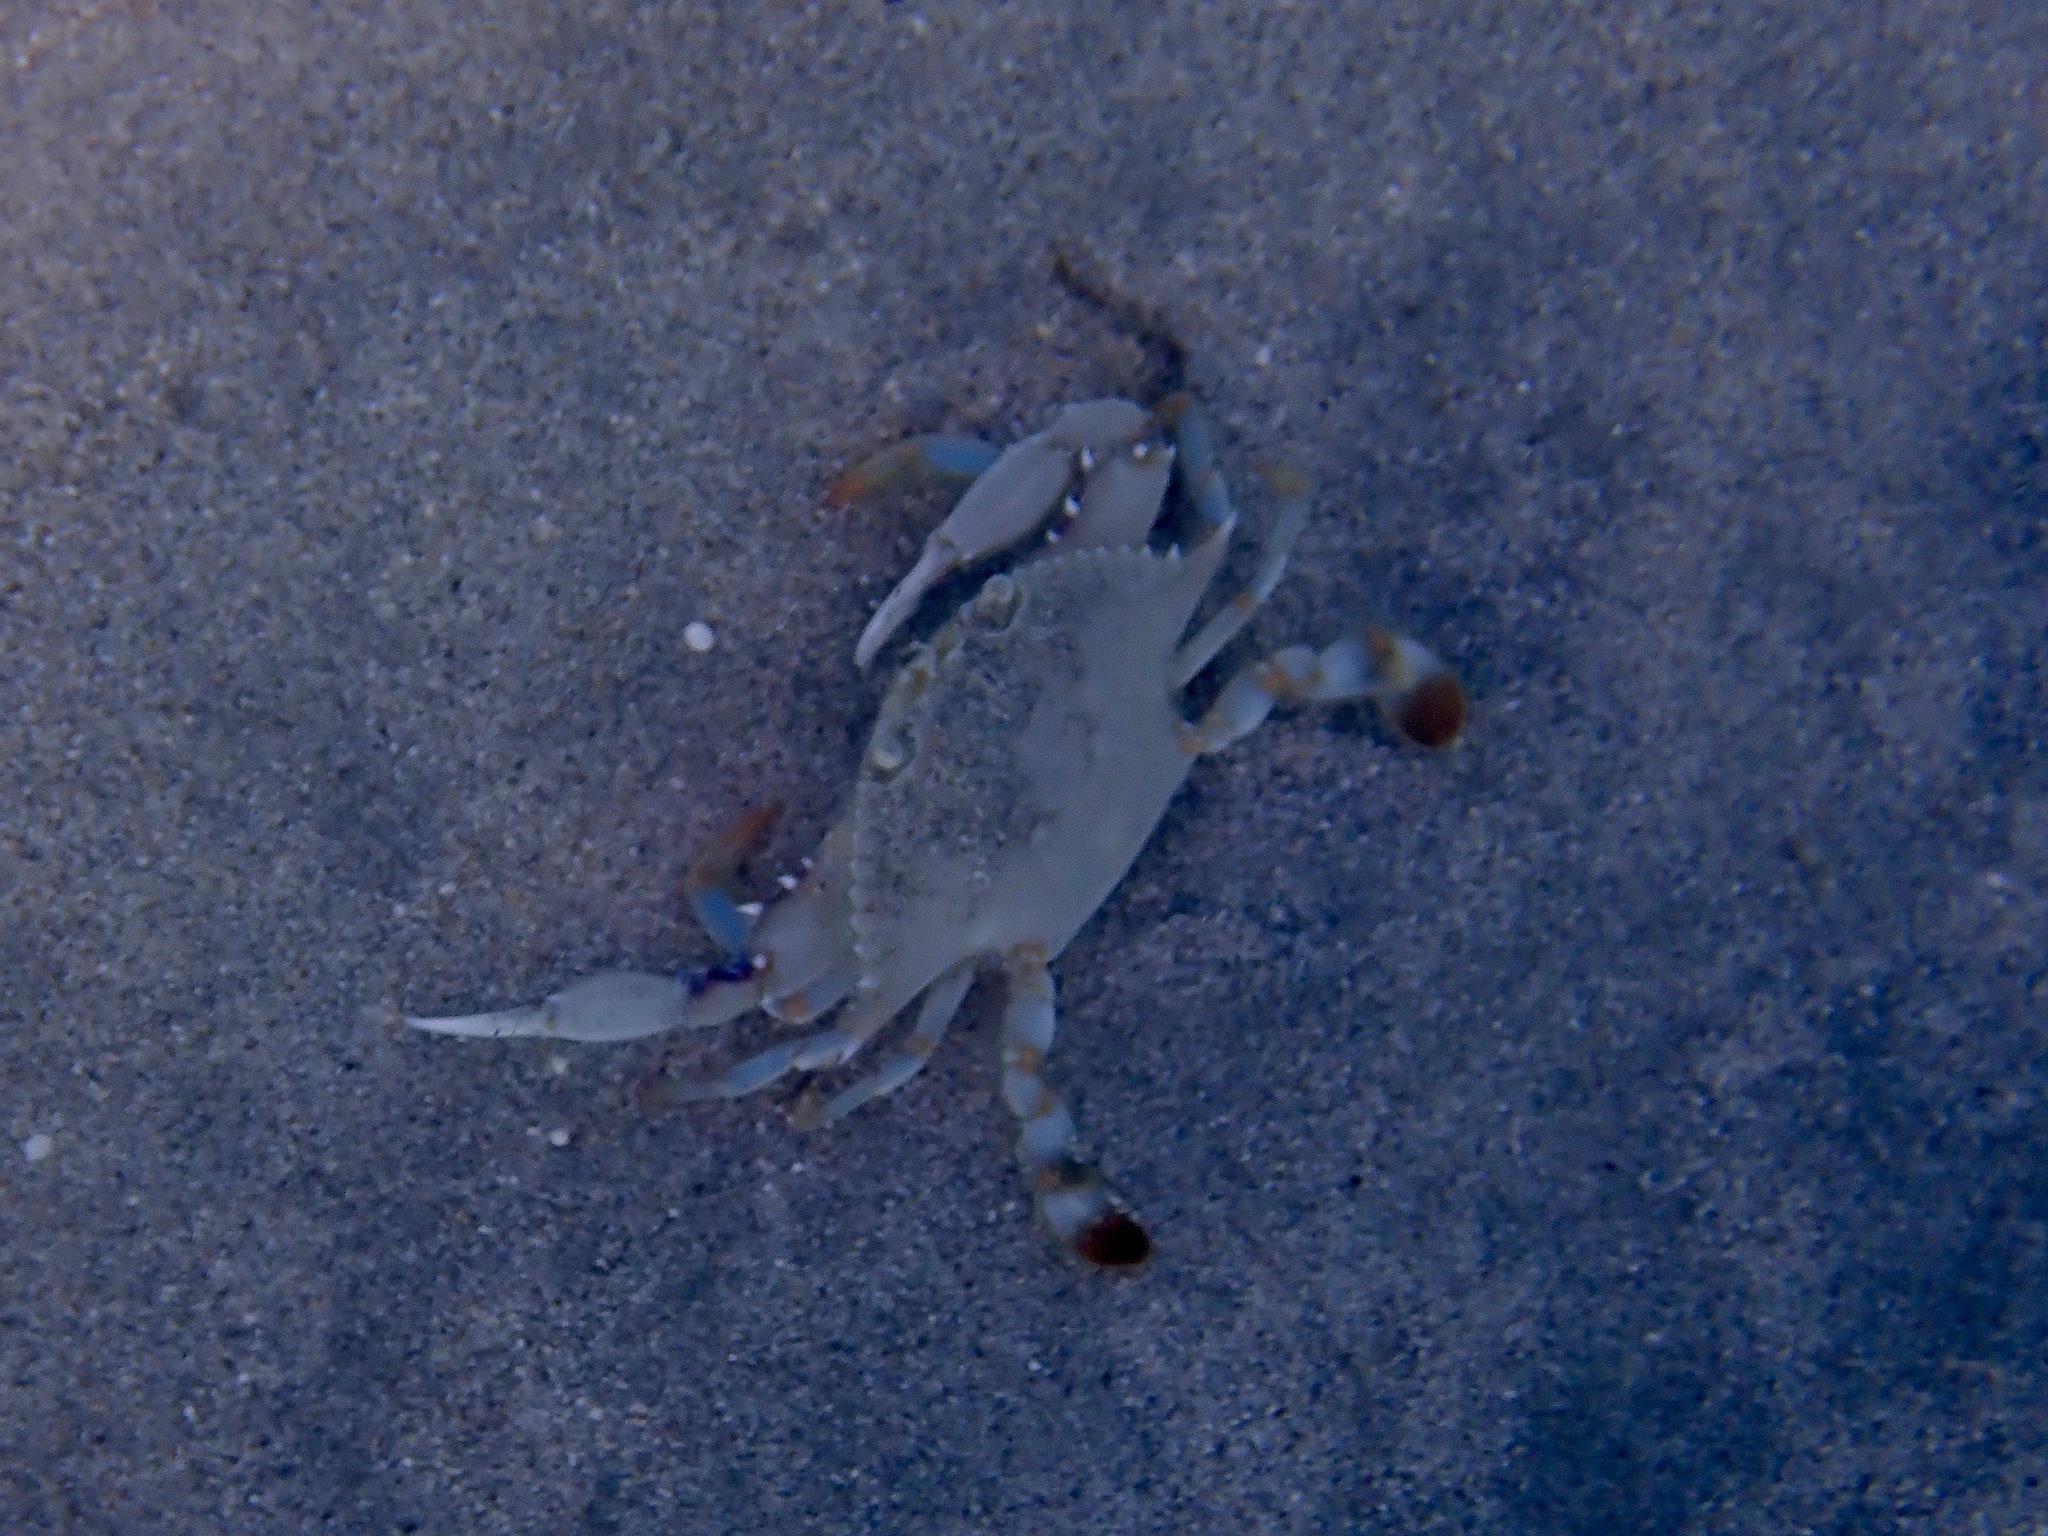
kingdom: Animalia
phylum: Arthropoda
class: Malacostraca
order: Decapoda
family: Portunidae
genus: Callinectes
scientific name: Callinectes ornatus
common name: Ornate crab
